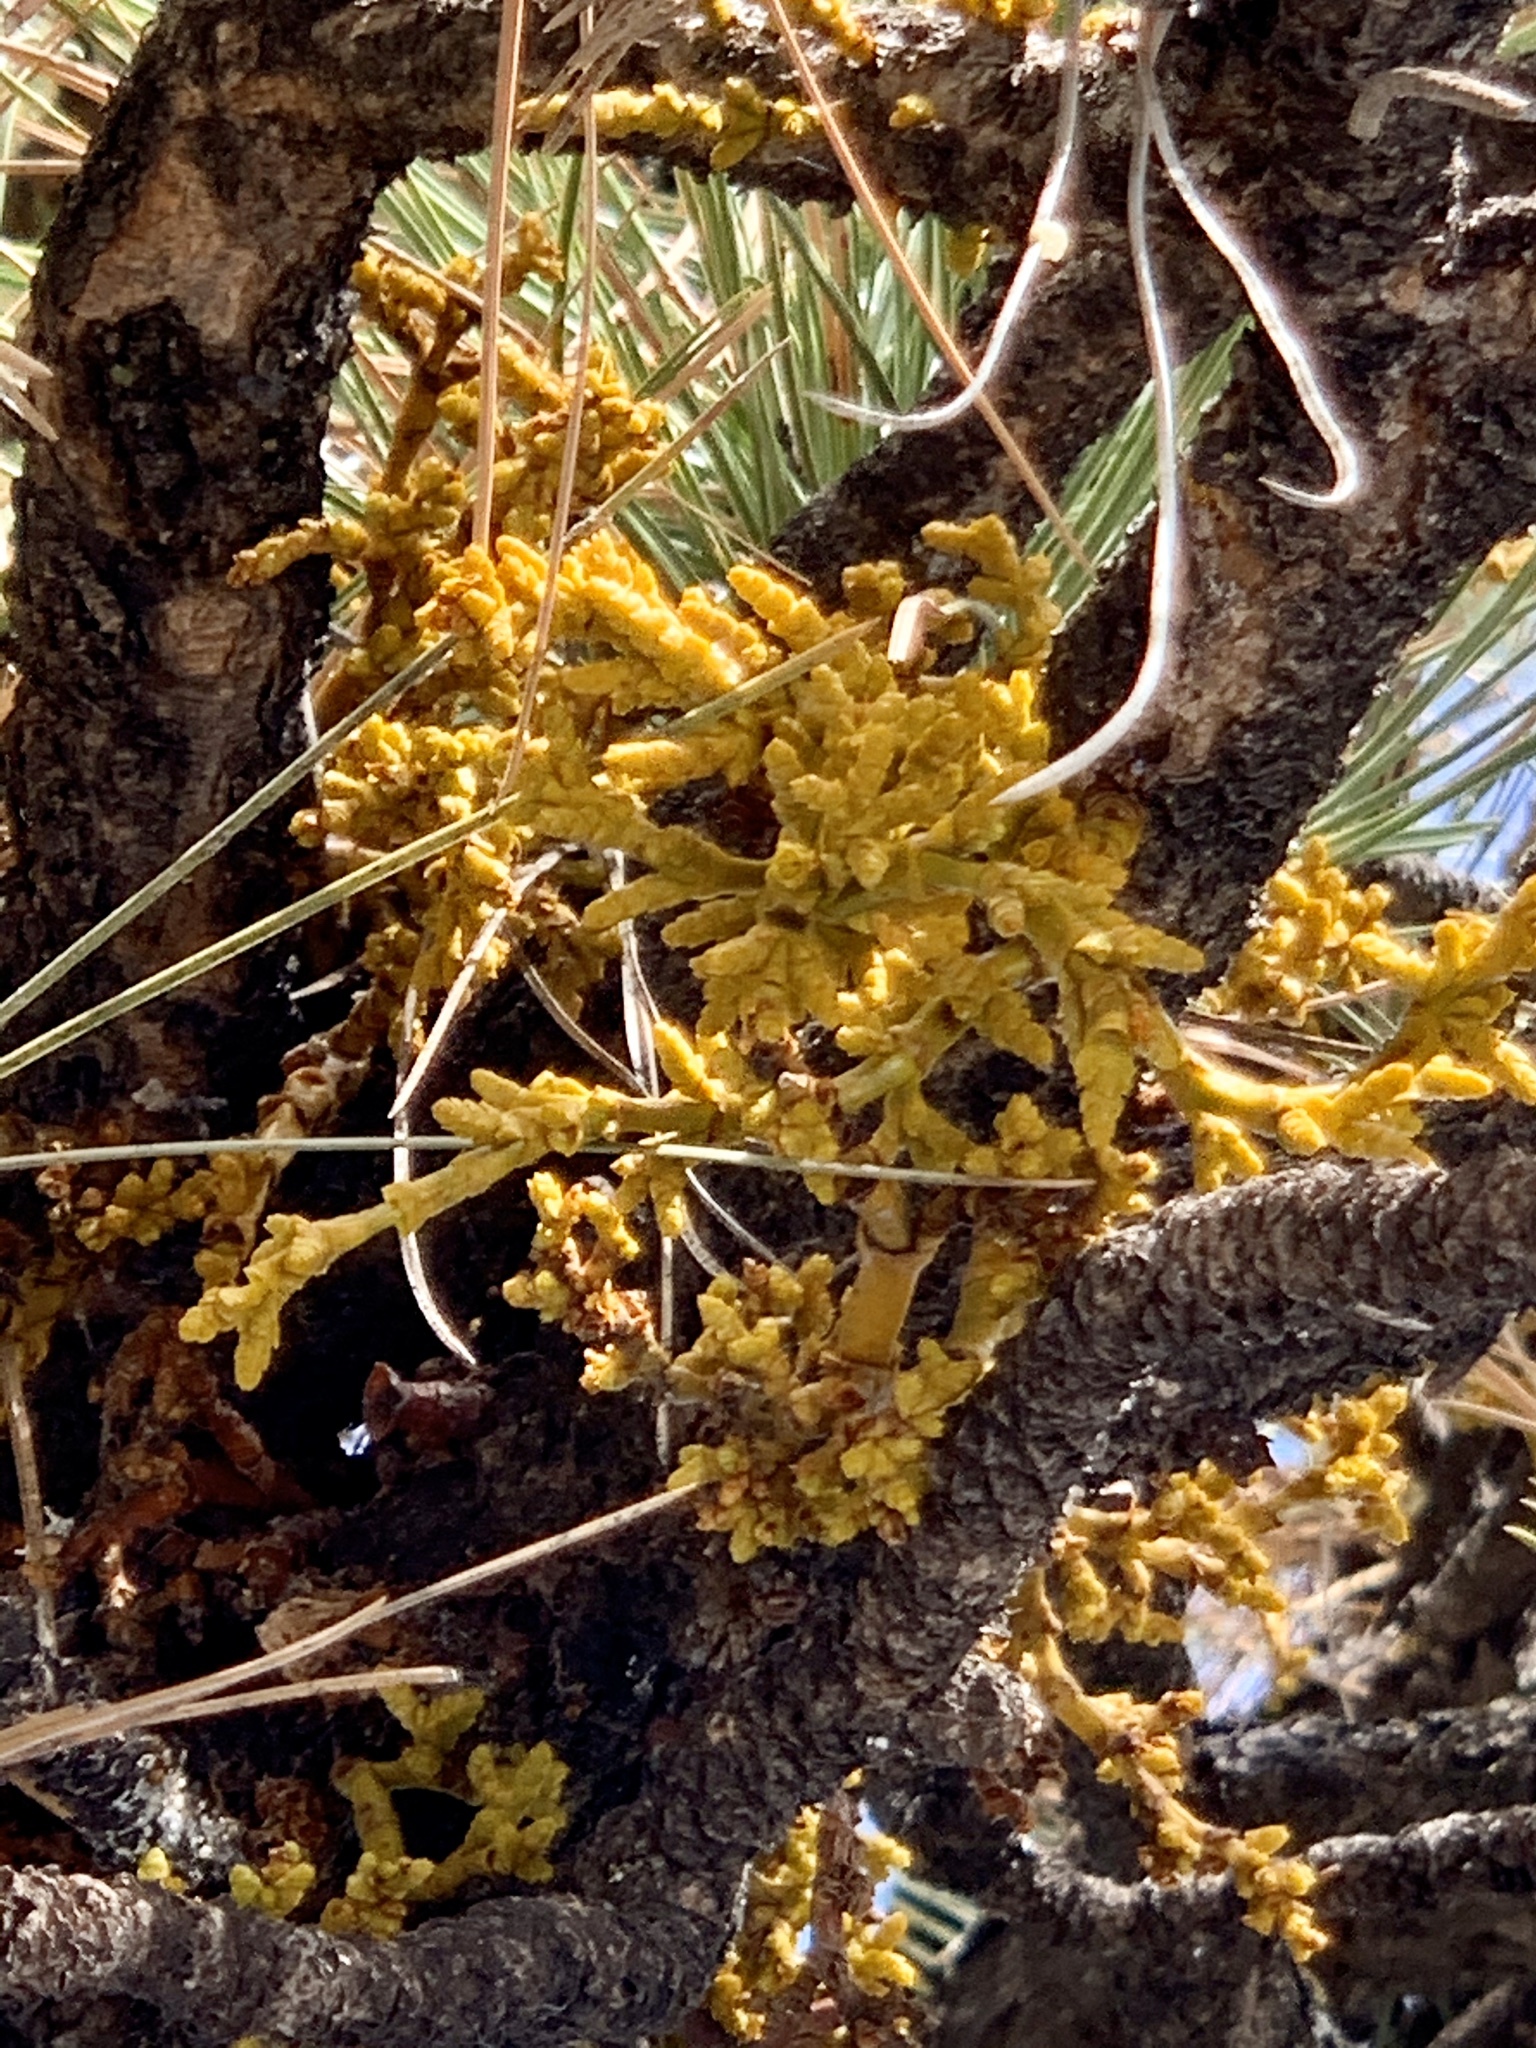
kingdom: Plantae
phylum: Tracheophyta
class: Magnoliopsida
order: Santalales
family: Viscaceae
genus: Arceuthobium
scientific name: Arceuthobium vaginatum
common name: Southwestern dwarf-mistletoe
